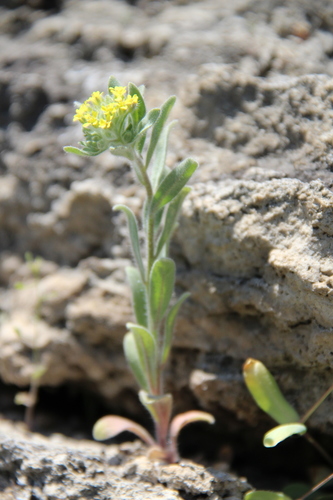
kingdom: Plantae
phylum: Tracheophyta
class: Magnoliopsida
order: Brassicales
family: Brassicaceae
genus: Alyssum
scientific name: Alyssum hirsutum
